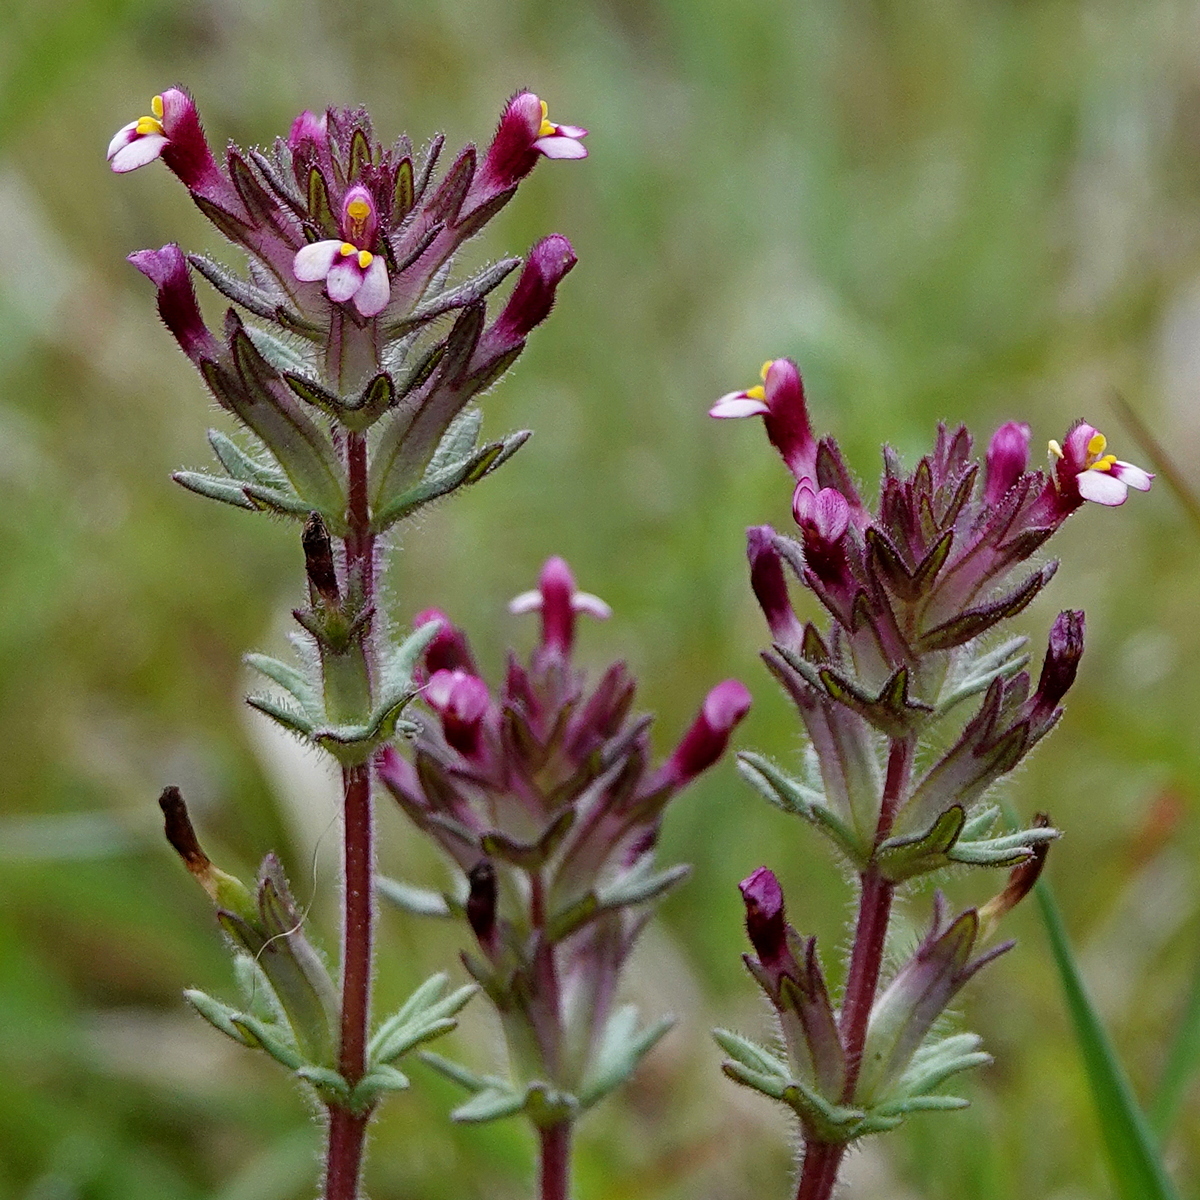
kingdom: Plantae
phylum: Tracheophyta
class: Magnoliopsida
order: Lamiales
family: Orobanchaceae
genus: Parentucellia
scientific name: Parentucellia latifolia
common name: Broadleaf glandweed
